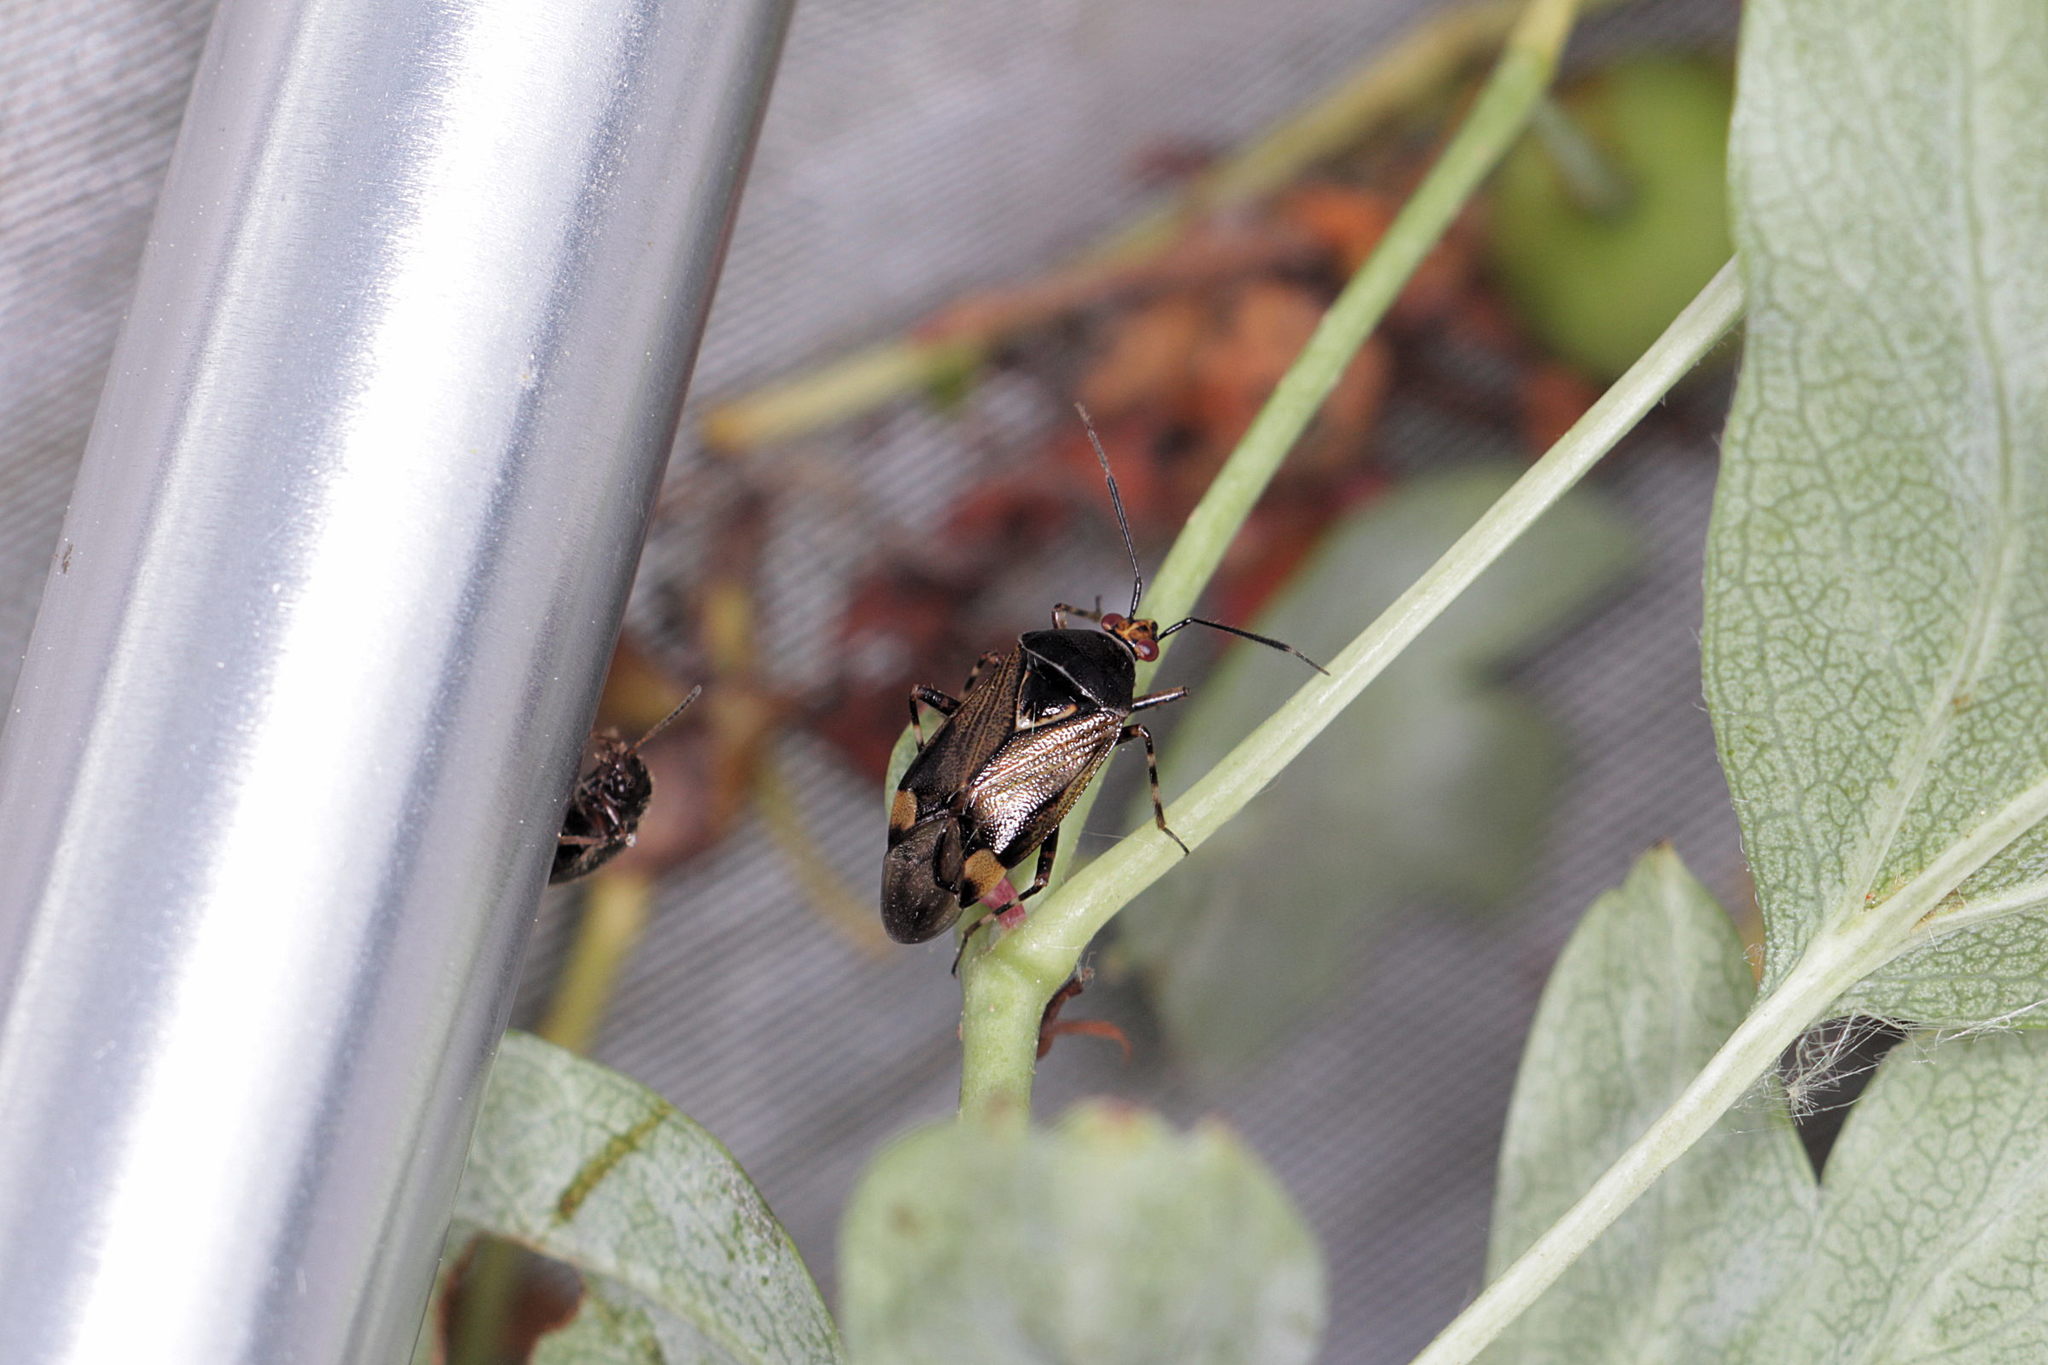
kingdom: Animalia
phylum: Arthropoda
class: Insecta
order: Hemiptera
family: Miridae
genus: Deraeocoris
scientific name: Deraeocoris flavilinea
